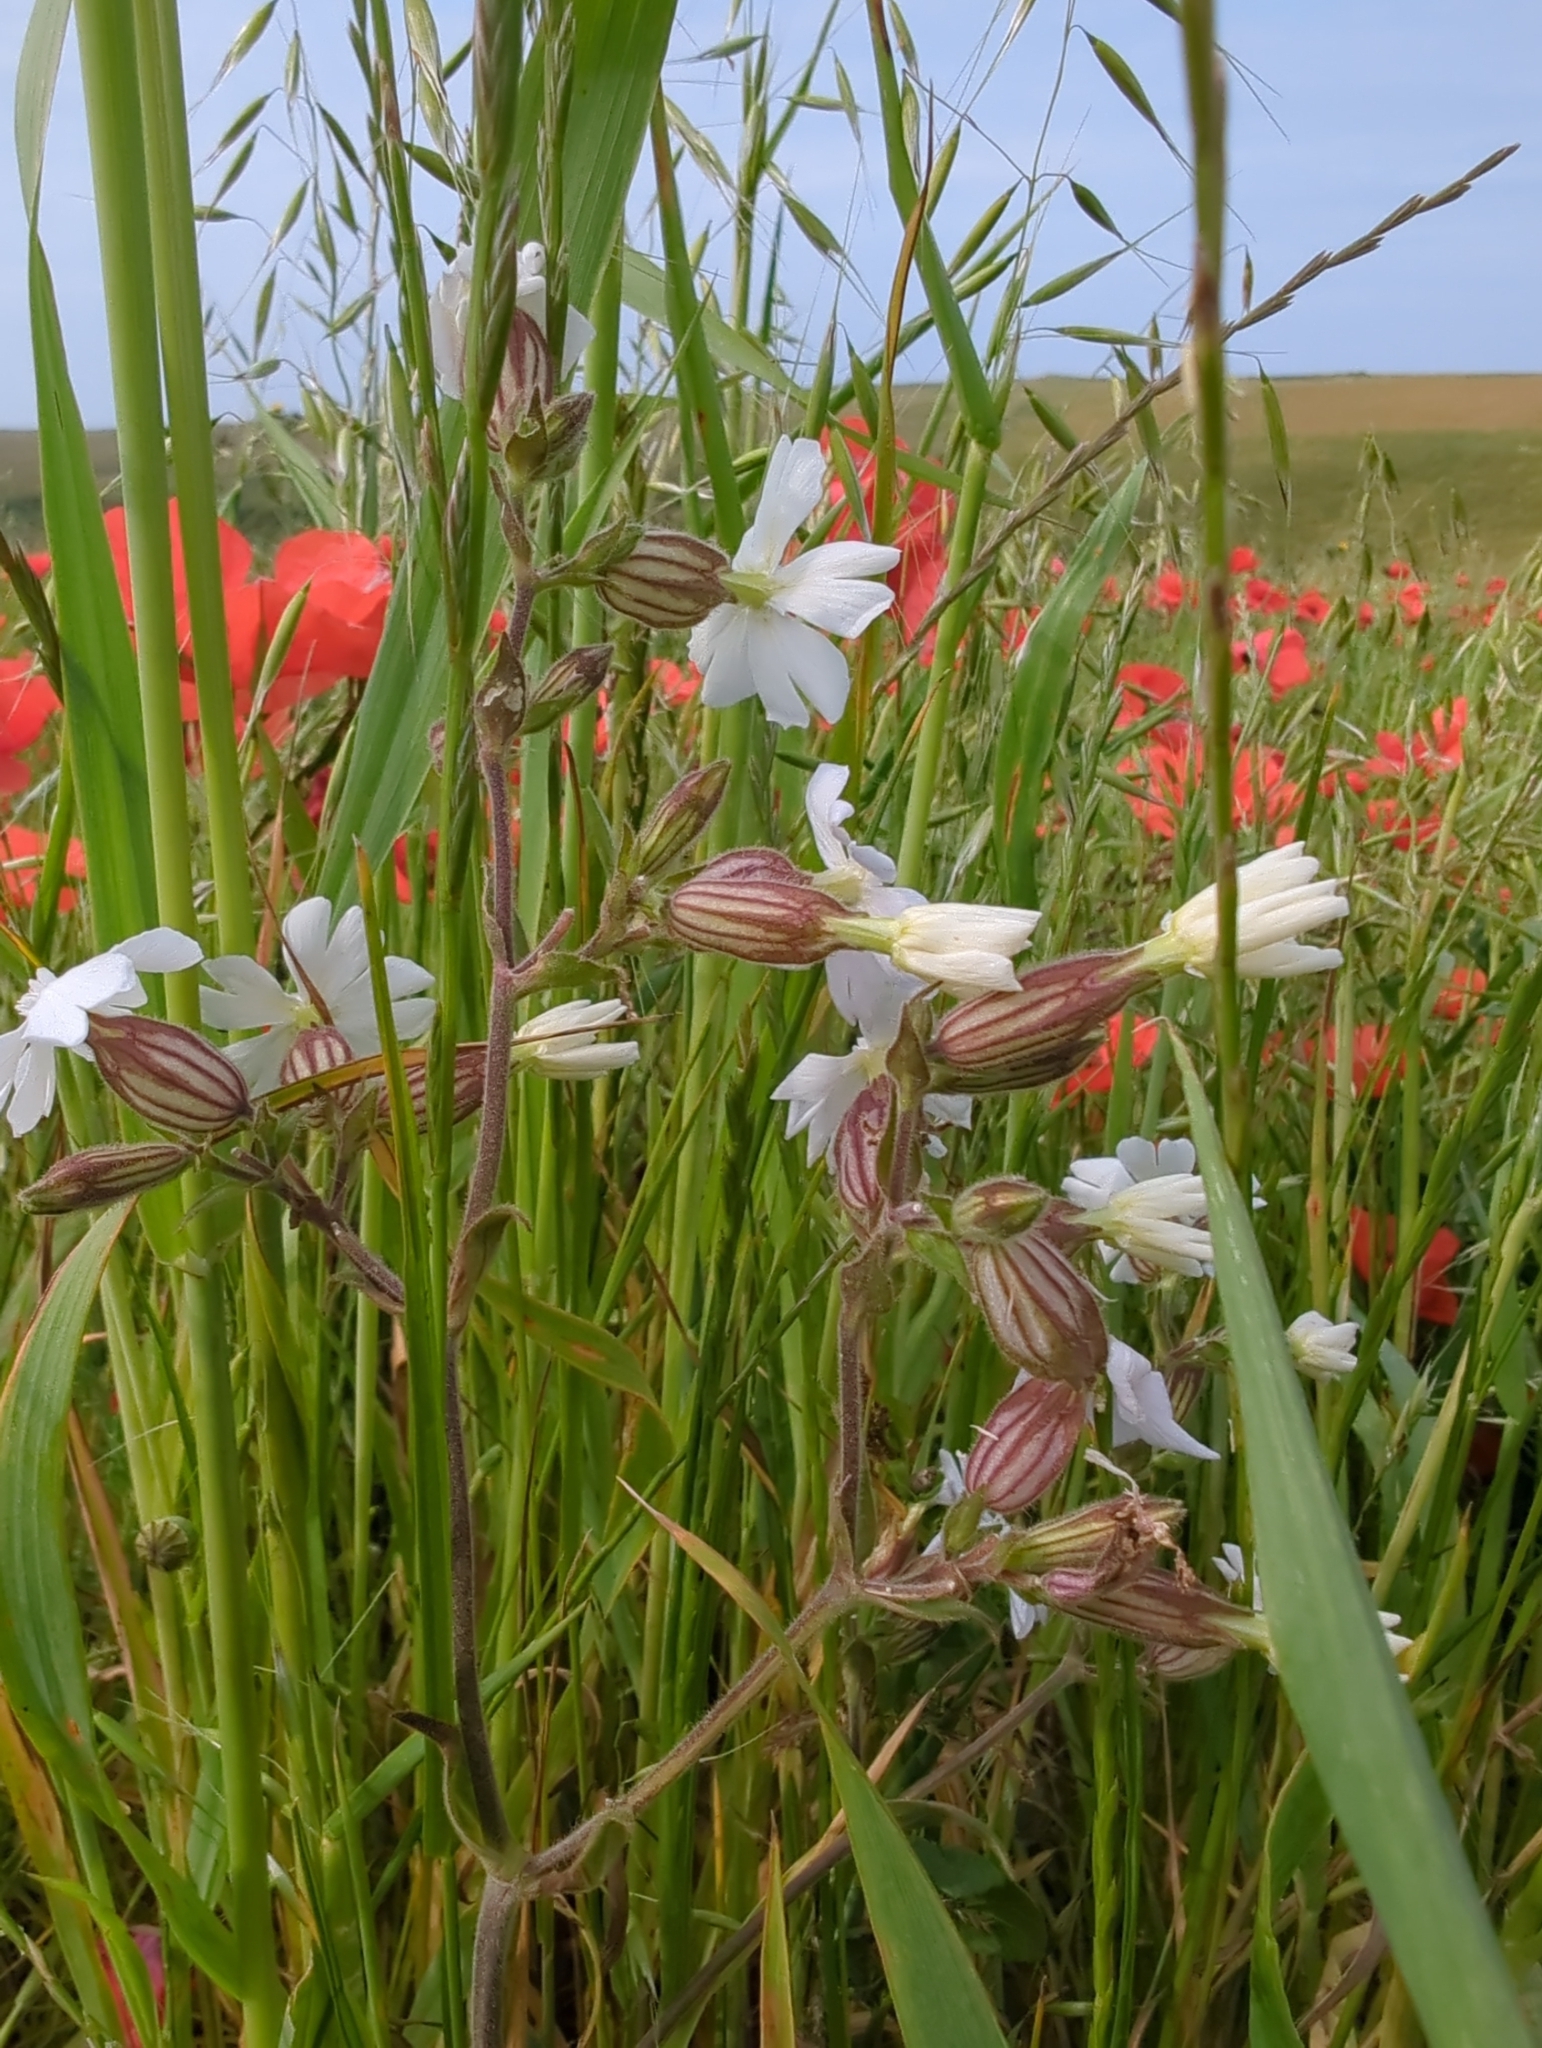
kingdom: Plantae
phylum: Tracheophyta
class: Magnoliopsida
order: Caryophyllales
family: Caryophyllaceae
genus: Silene
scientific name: Silene latifolia
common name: White campion
